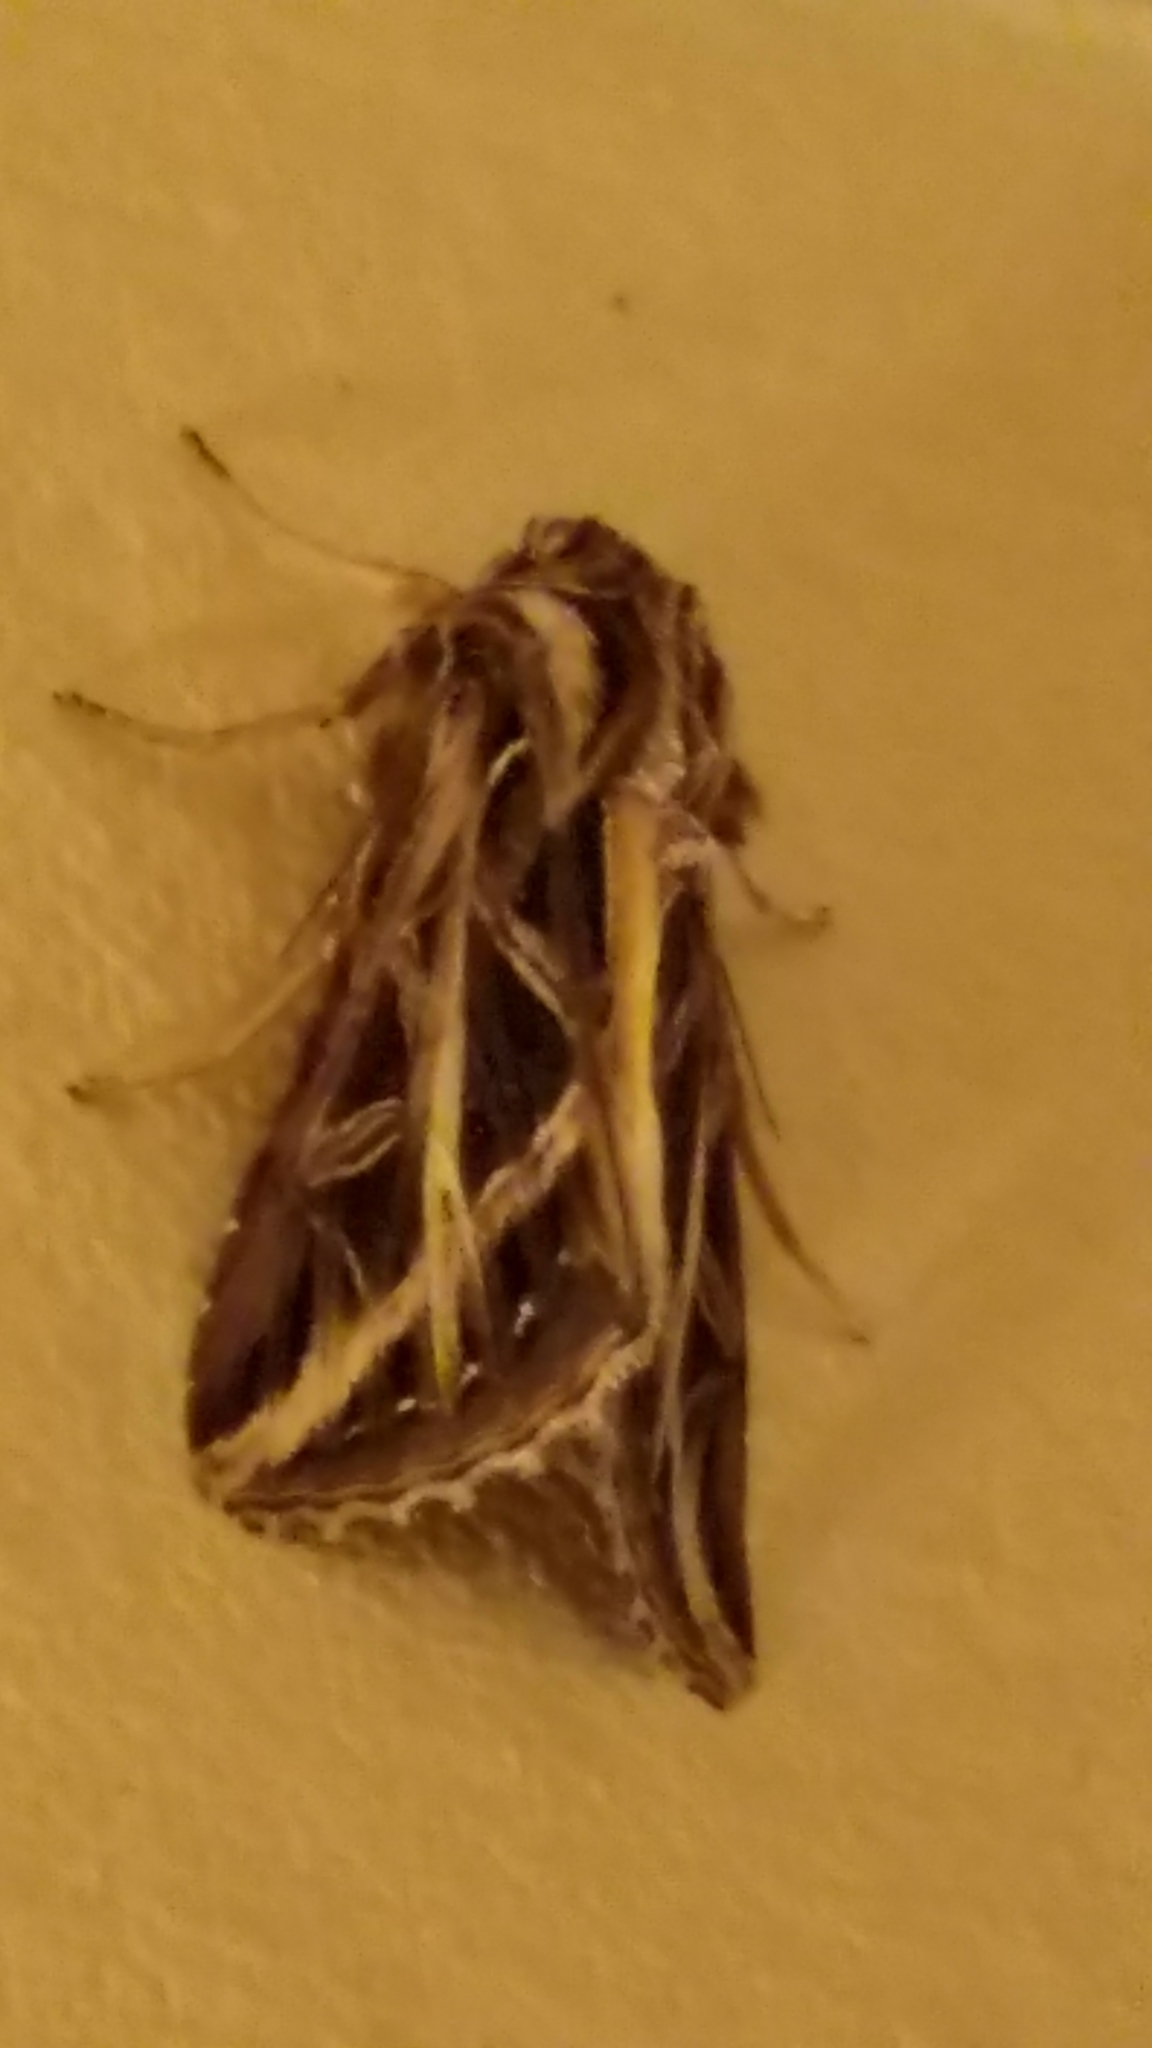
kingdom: Animalia
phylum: Arthropoda
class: Insecta
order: Lepidoptera
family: Noctuidae
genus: Dargida
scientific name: Dargida procinctus
